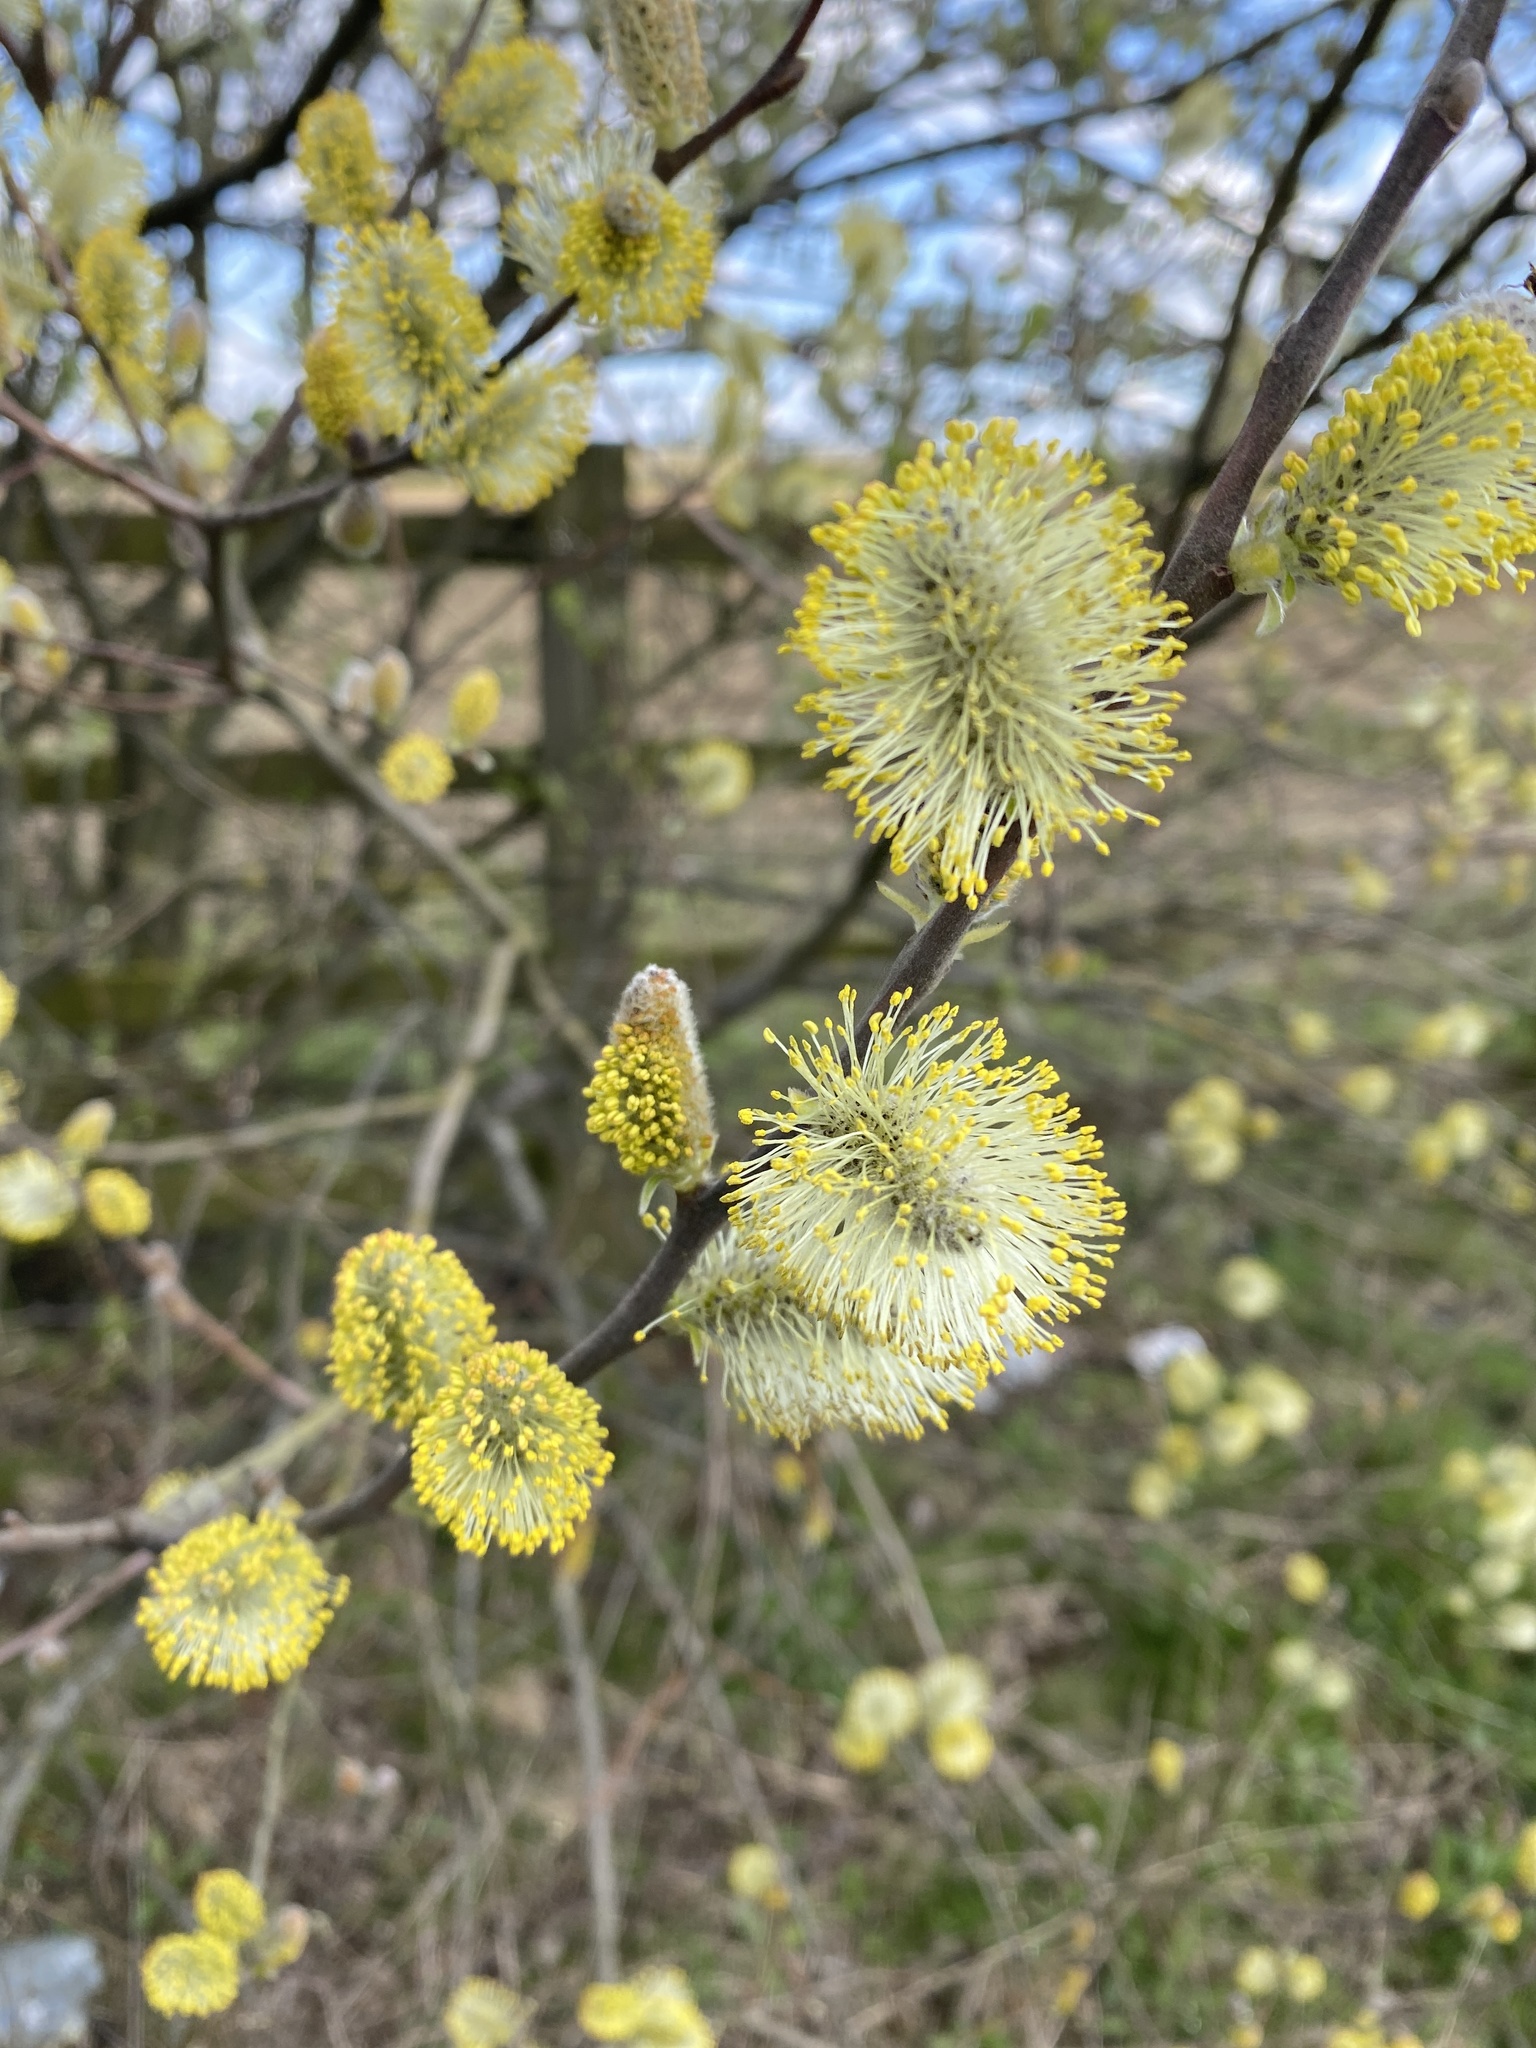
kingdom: Plantae
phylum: Tracheophyta
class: Magnoliopsida
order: Malpighiales
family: Salicaceae
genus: Salix
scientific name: Salix caprea
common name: Goat willow
